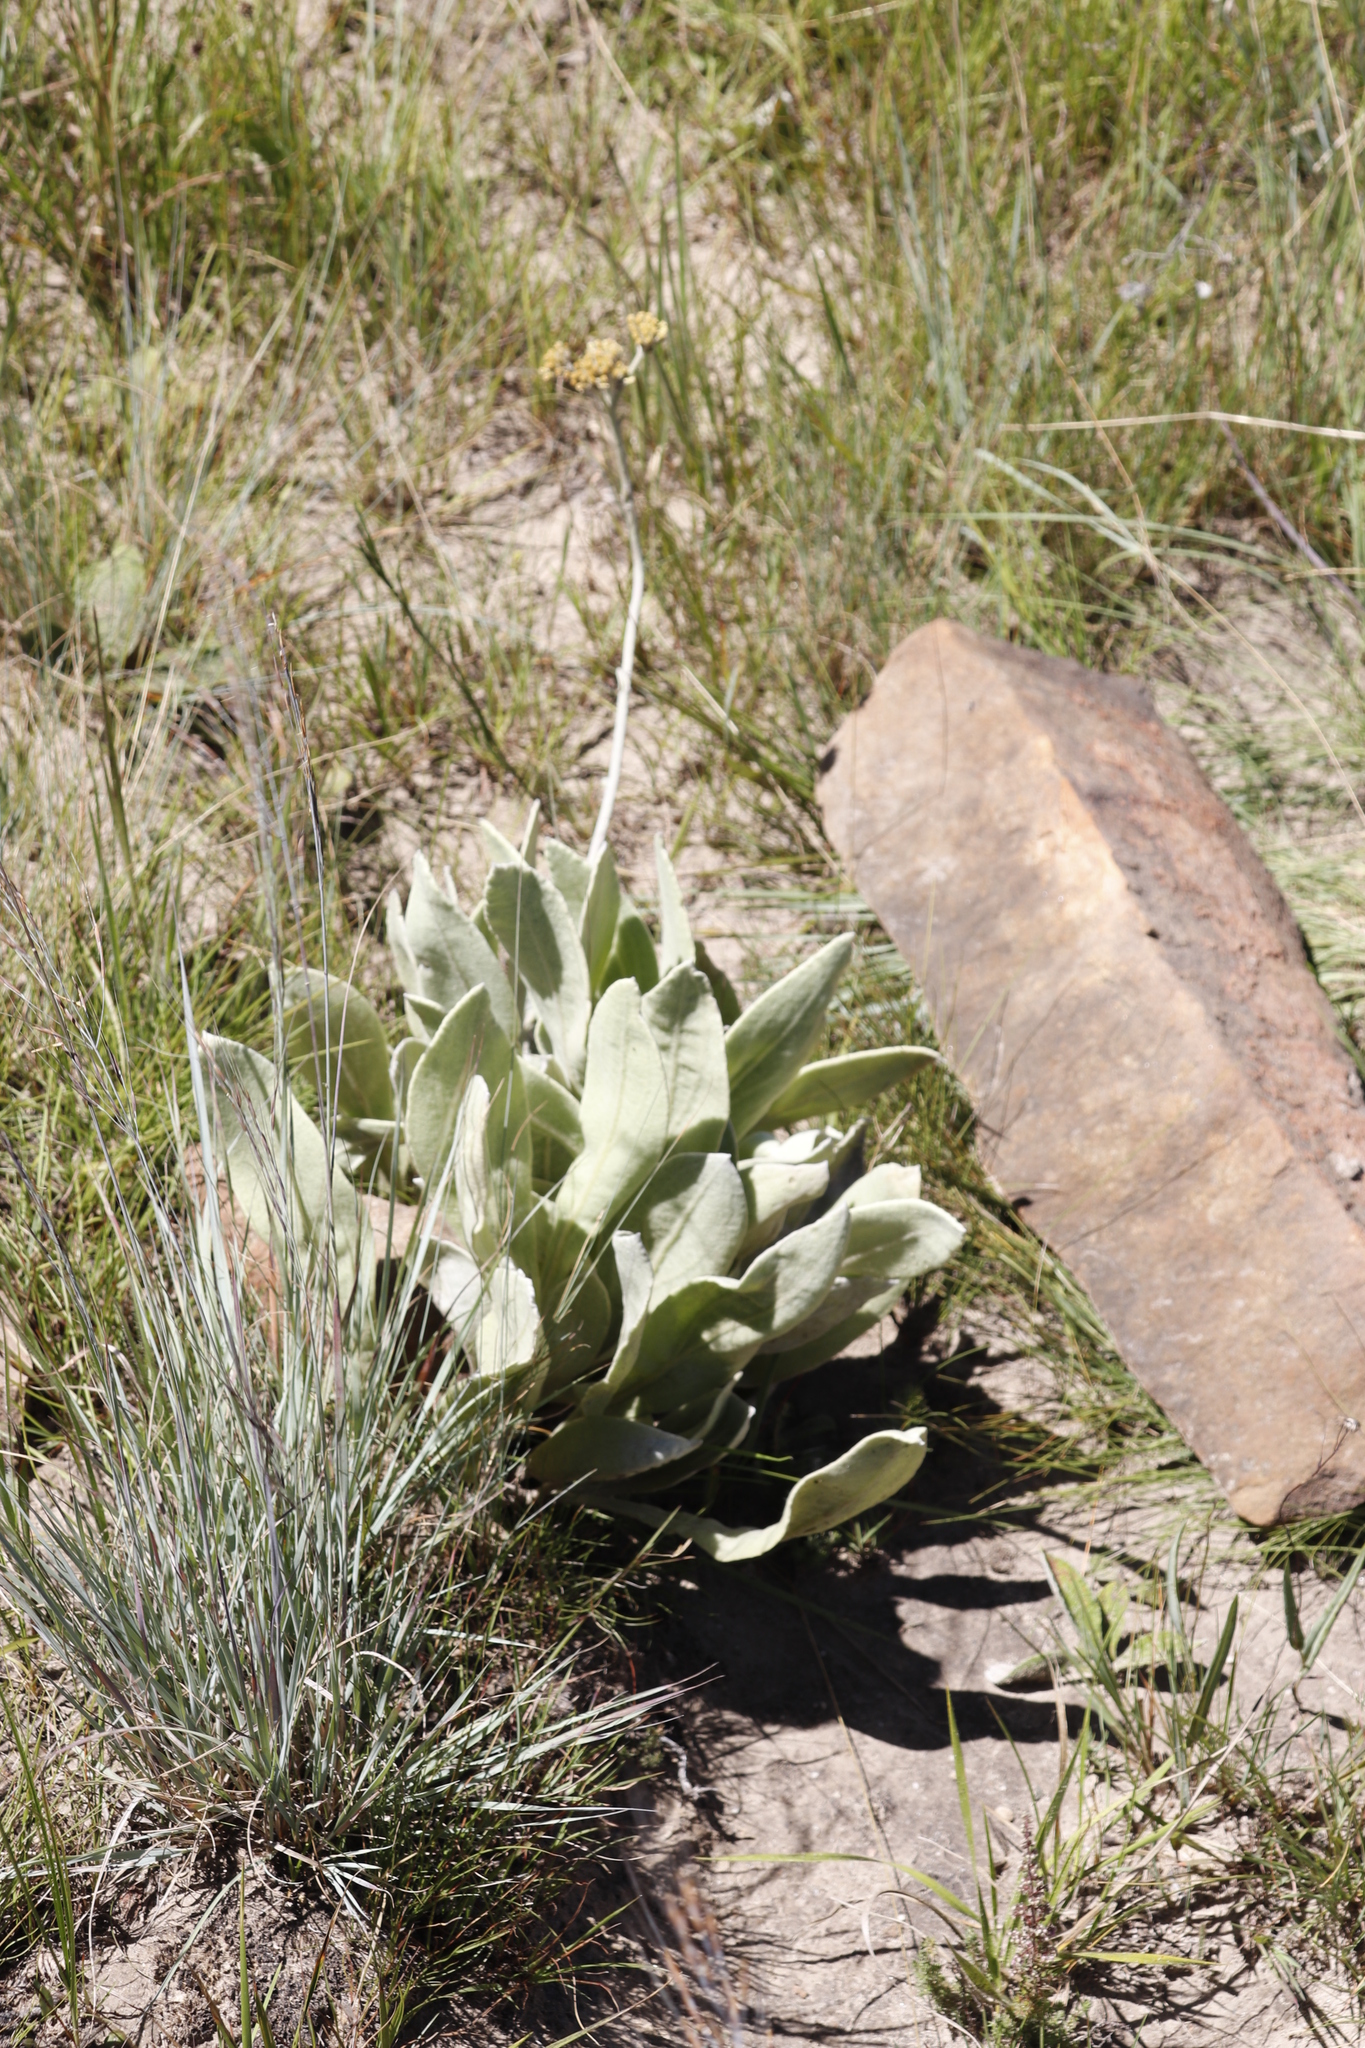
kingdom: Plantae
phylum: Tracheophyta
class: Magnoliopsida
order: Asterales
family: Asteraceae
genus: Helichrysum
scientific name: Helichrysum acutatum
